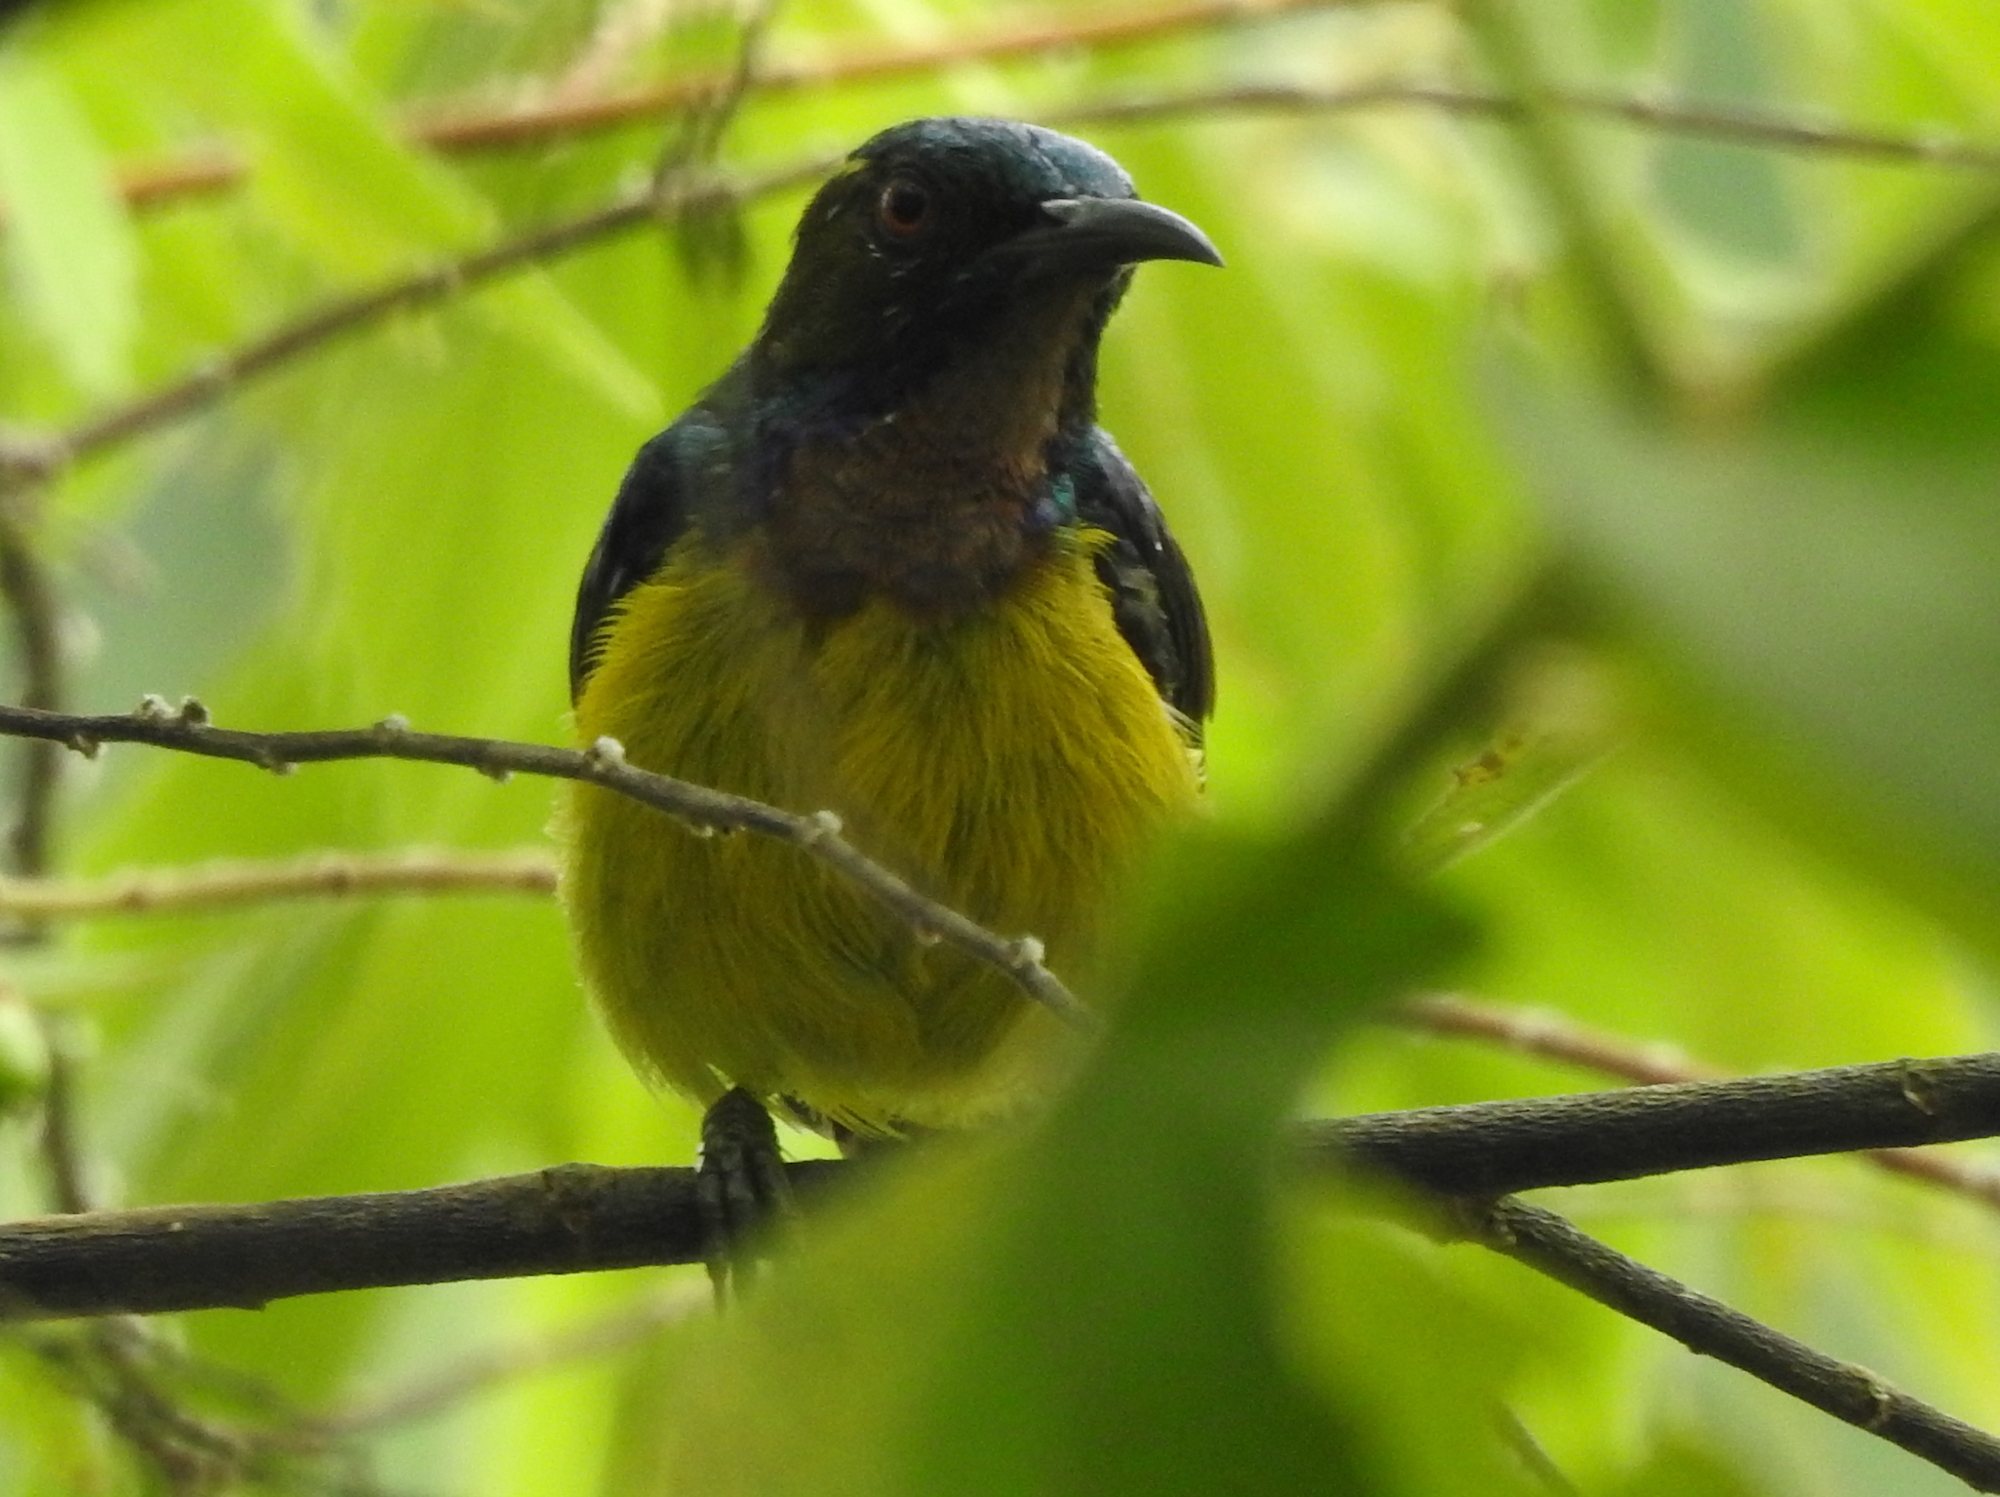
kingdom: Animalia
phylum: Chordata
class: Aves
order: Passeriformes
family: Nectariniidae
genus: Anthreptes
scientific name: Anthreptes malacensis
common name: Brown-throated sunbird
